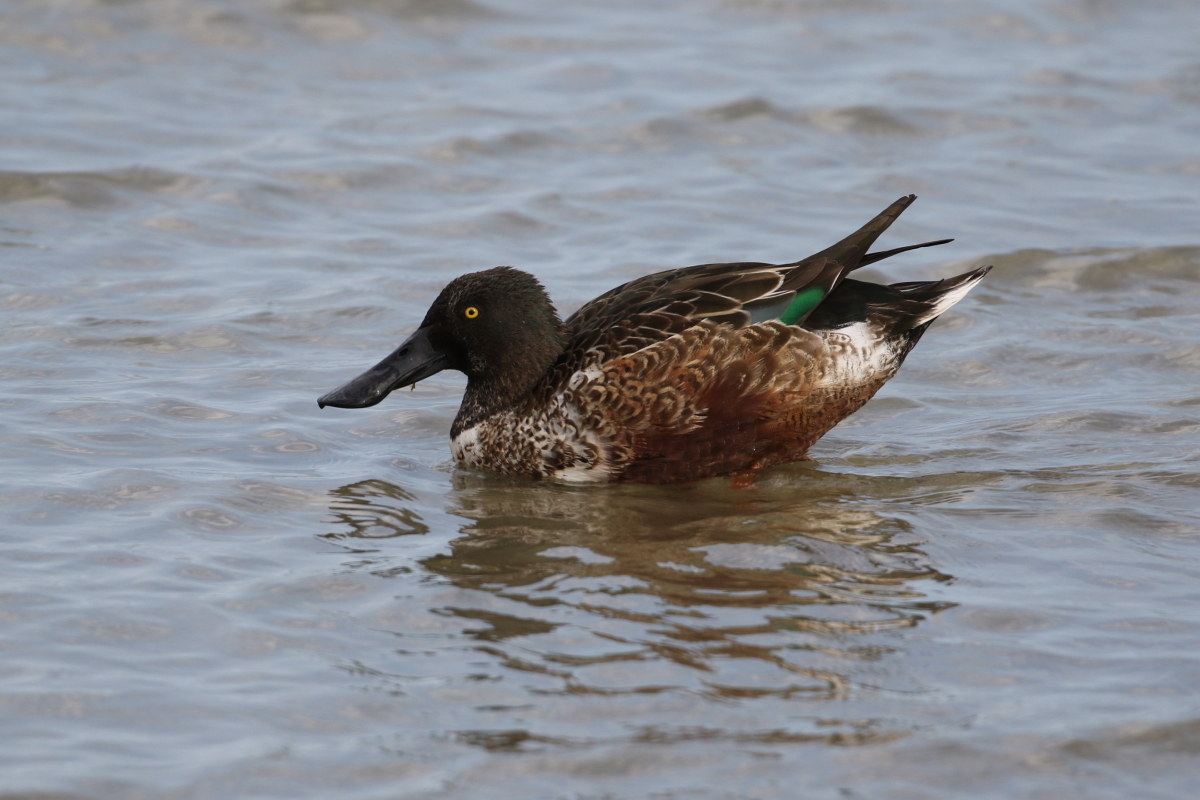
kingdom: Animalia
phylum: Chordata
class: Aves
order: Anseriformes
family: Anatidae
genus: Spatula
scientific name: Spatula clypeata
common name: Northern shoveler
